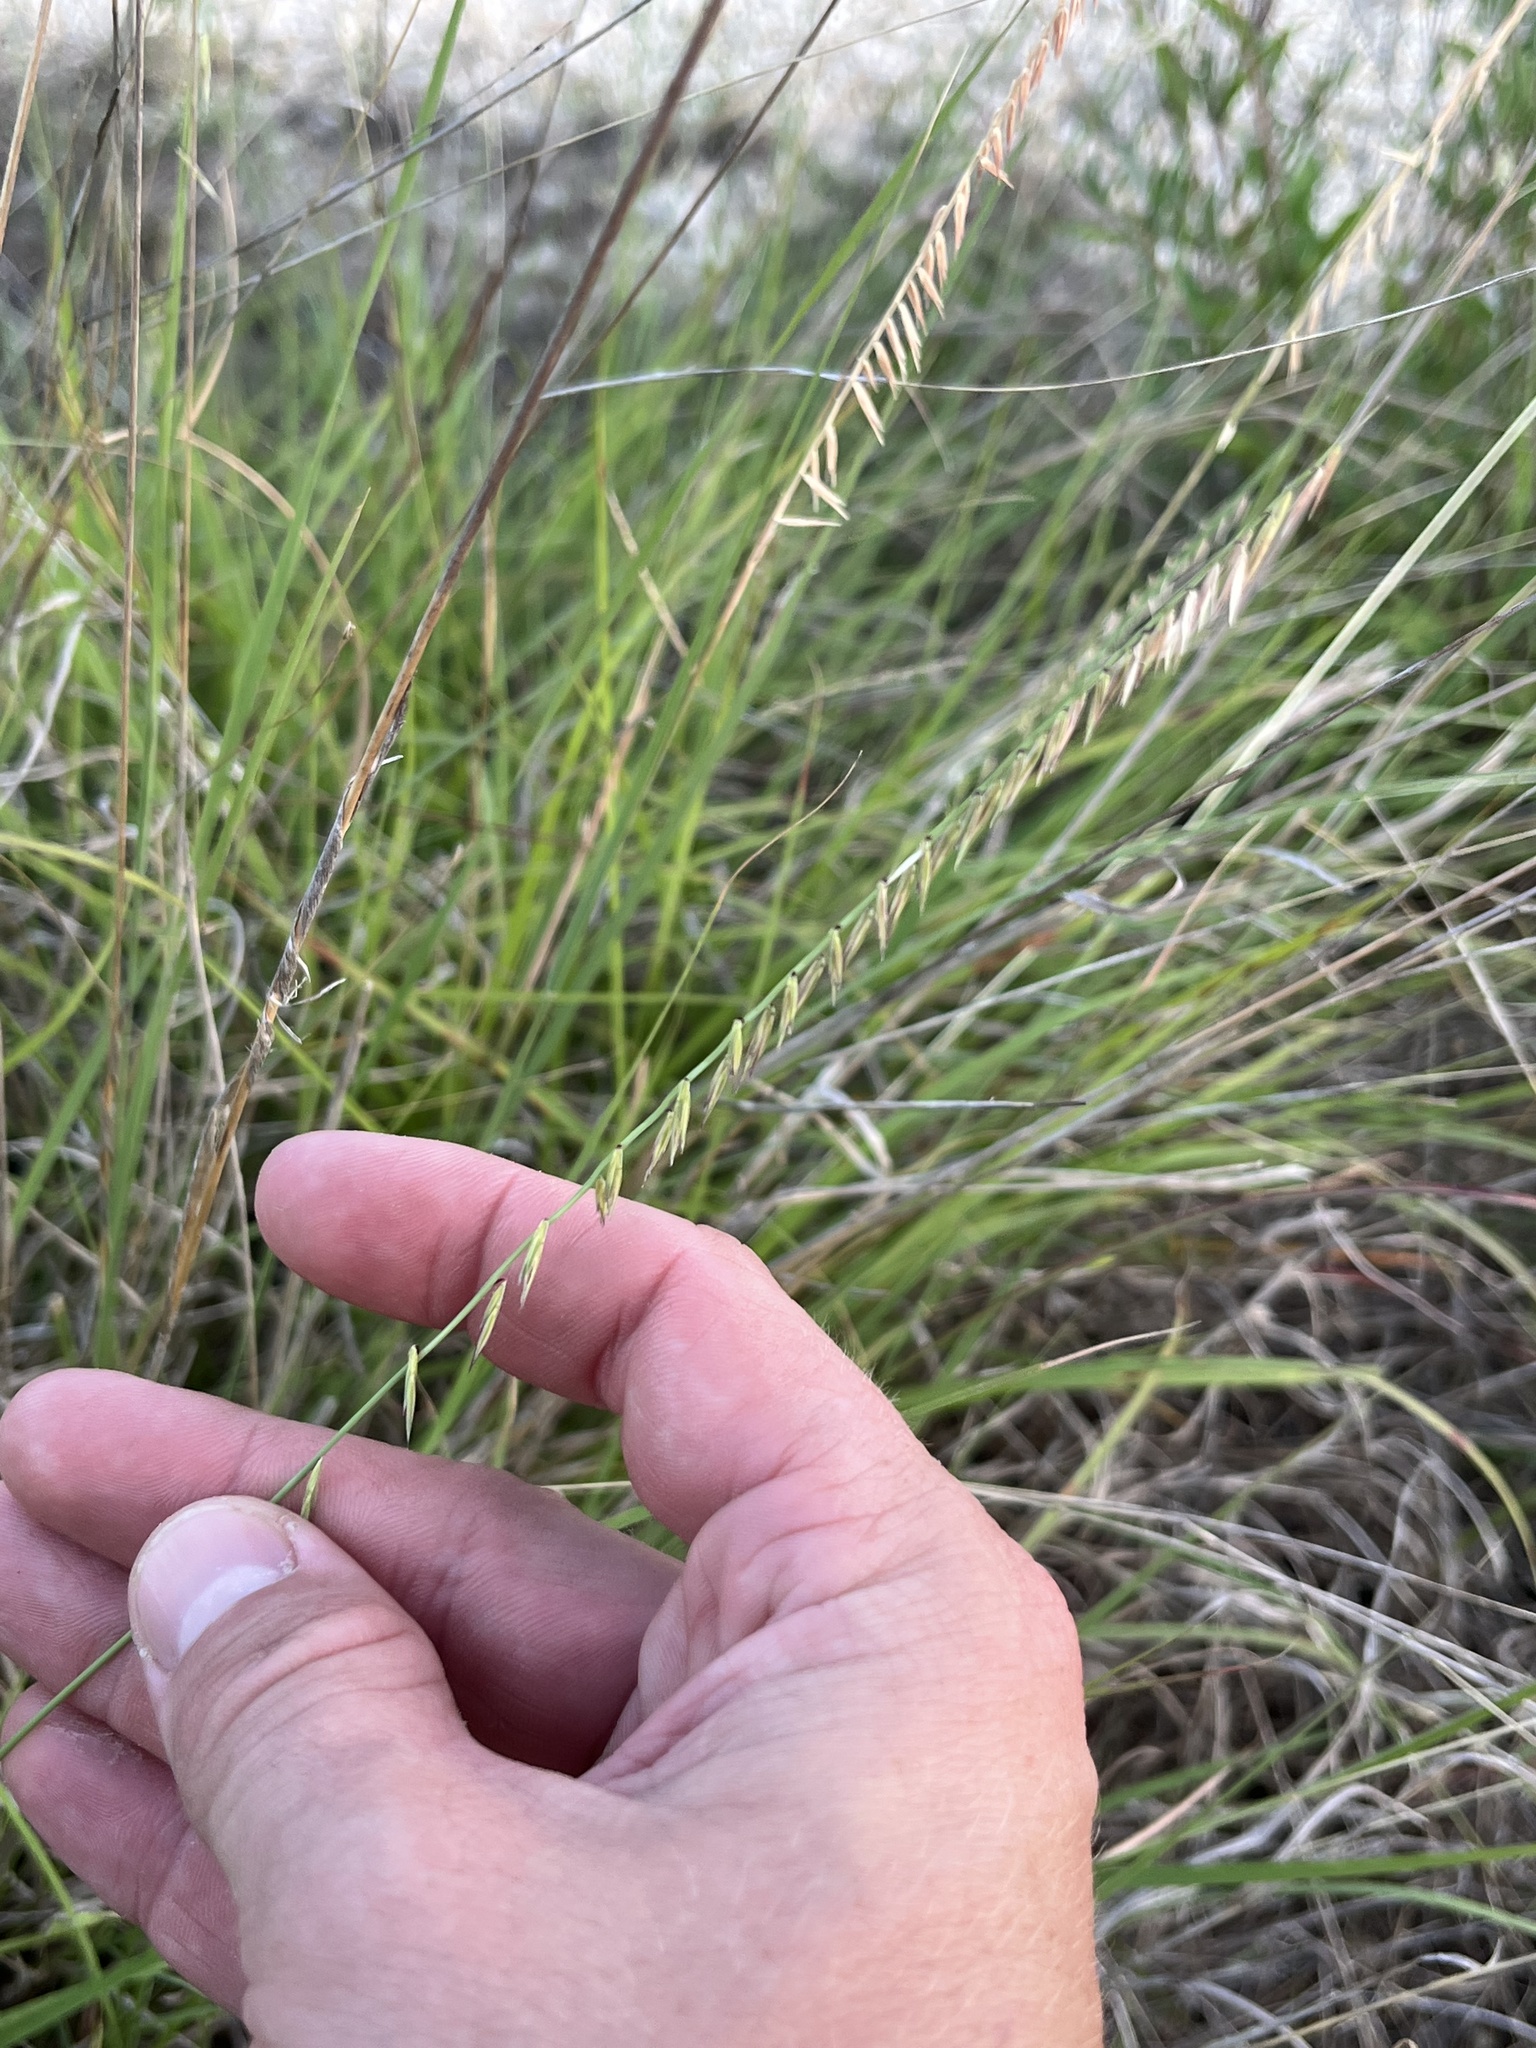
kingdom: Plantae
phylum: Tracheophyta
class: Liliopsida
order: Poales
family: Poaceae
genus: Bouteloua
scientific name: Bouteloua curtipendula
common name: Side-oats grama
